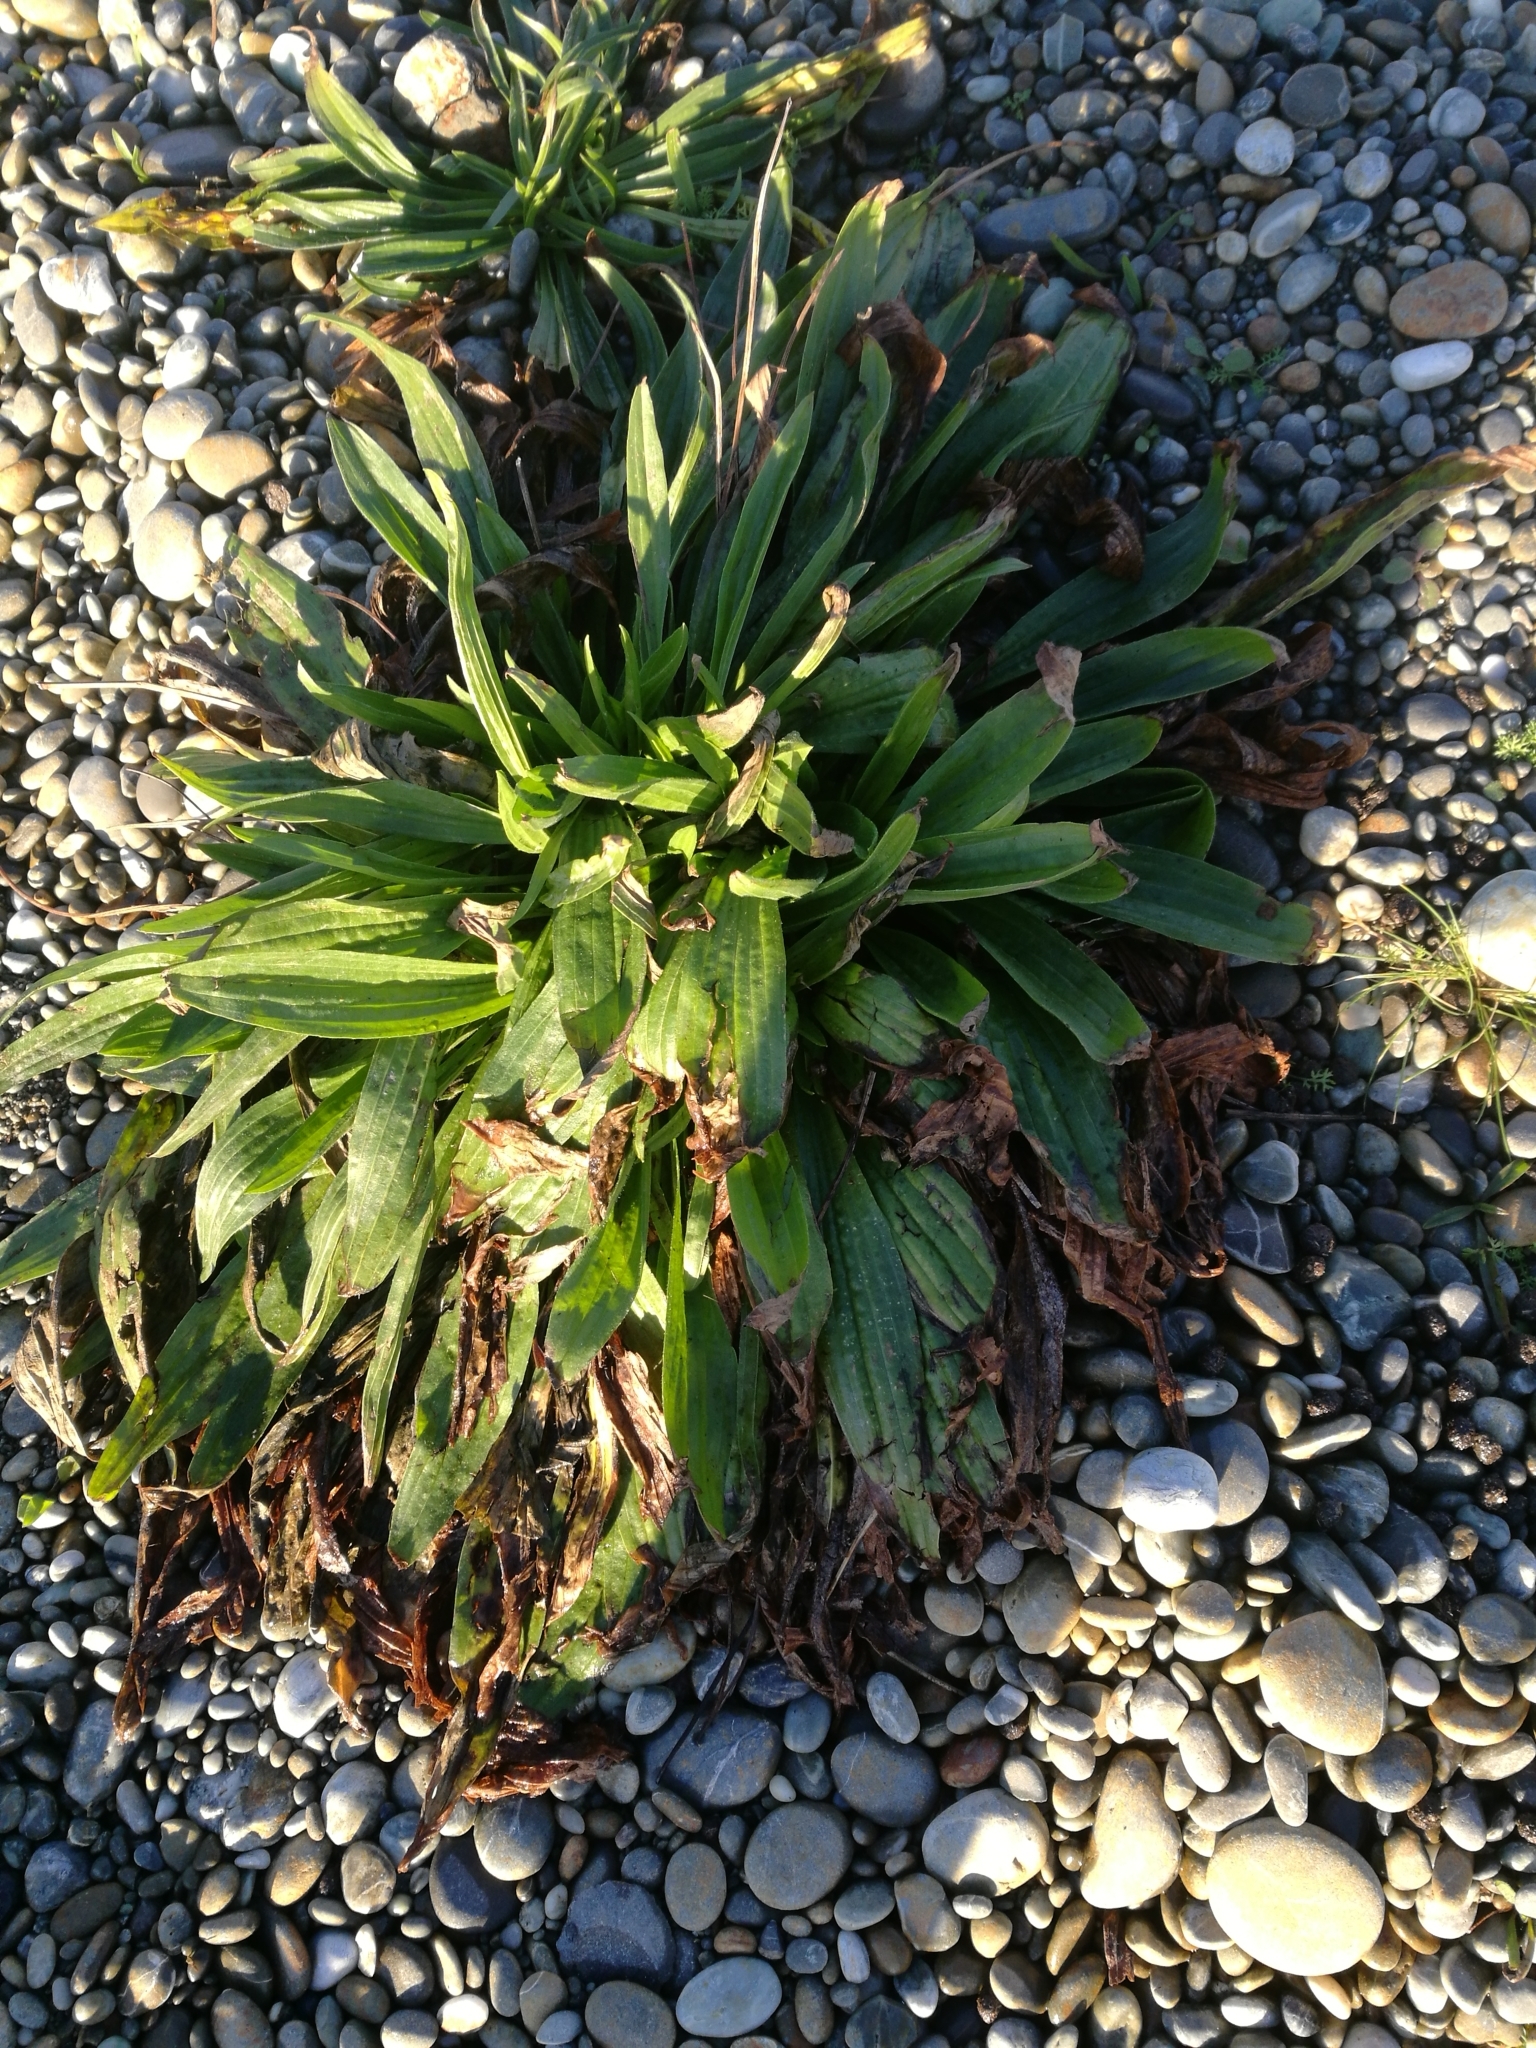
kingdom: Plantae
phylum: Tracheophyta
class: Magnoliopsida
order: Lamiales
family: Plantaginaceae
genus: Plantago
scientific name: Plantago lanceolata
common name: Ribwort plantain
